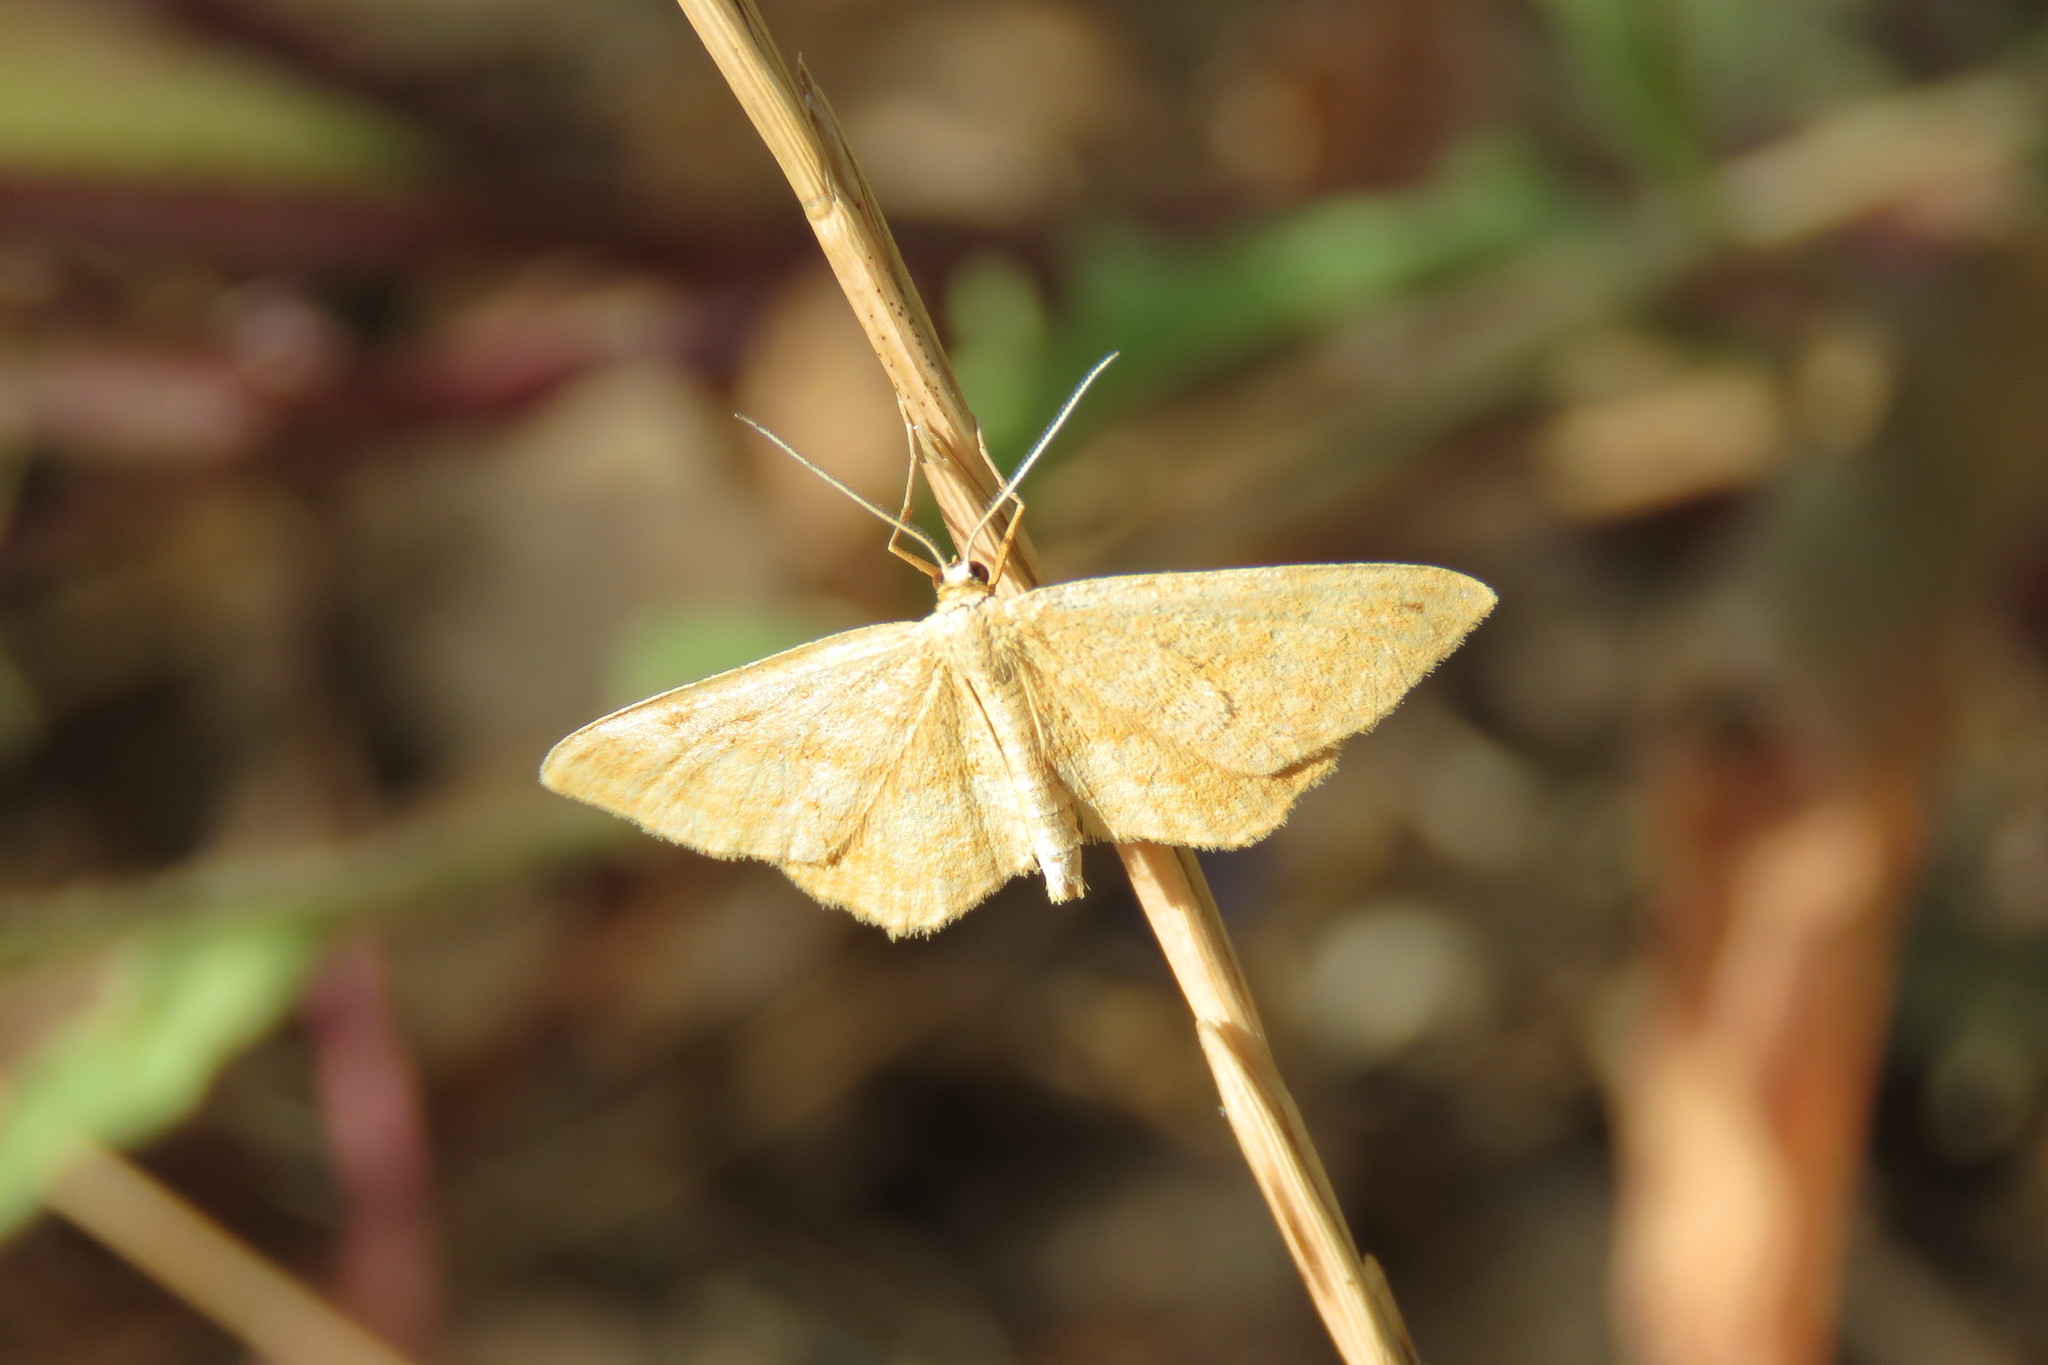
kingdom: Animalia
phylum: Arthropoda
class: Insecta
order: Lepidoptera
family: Geometridae
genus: Idaea
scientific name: Idaea antiquaria
